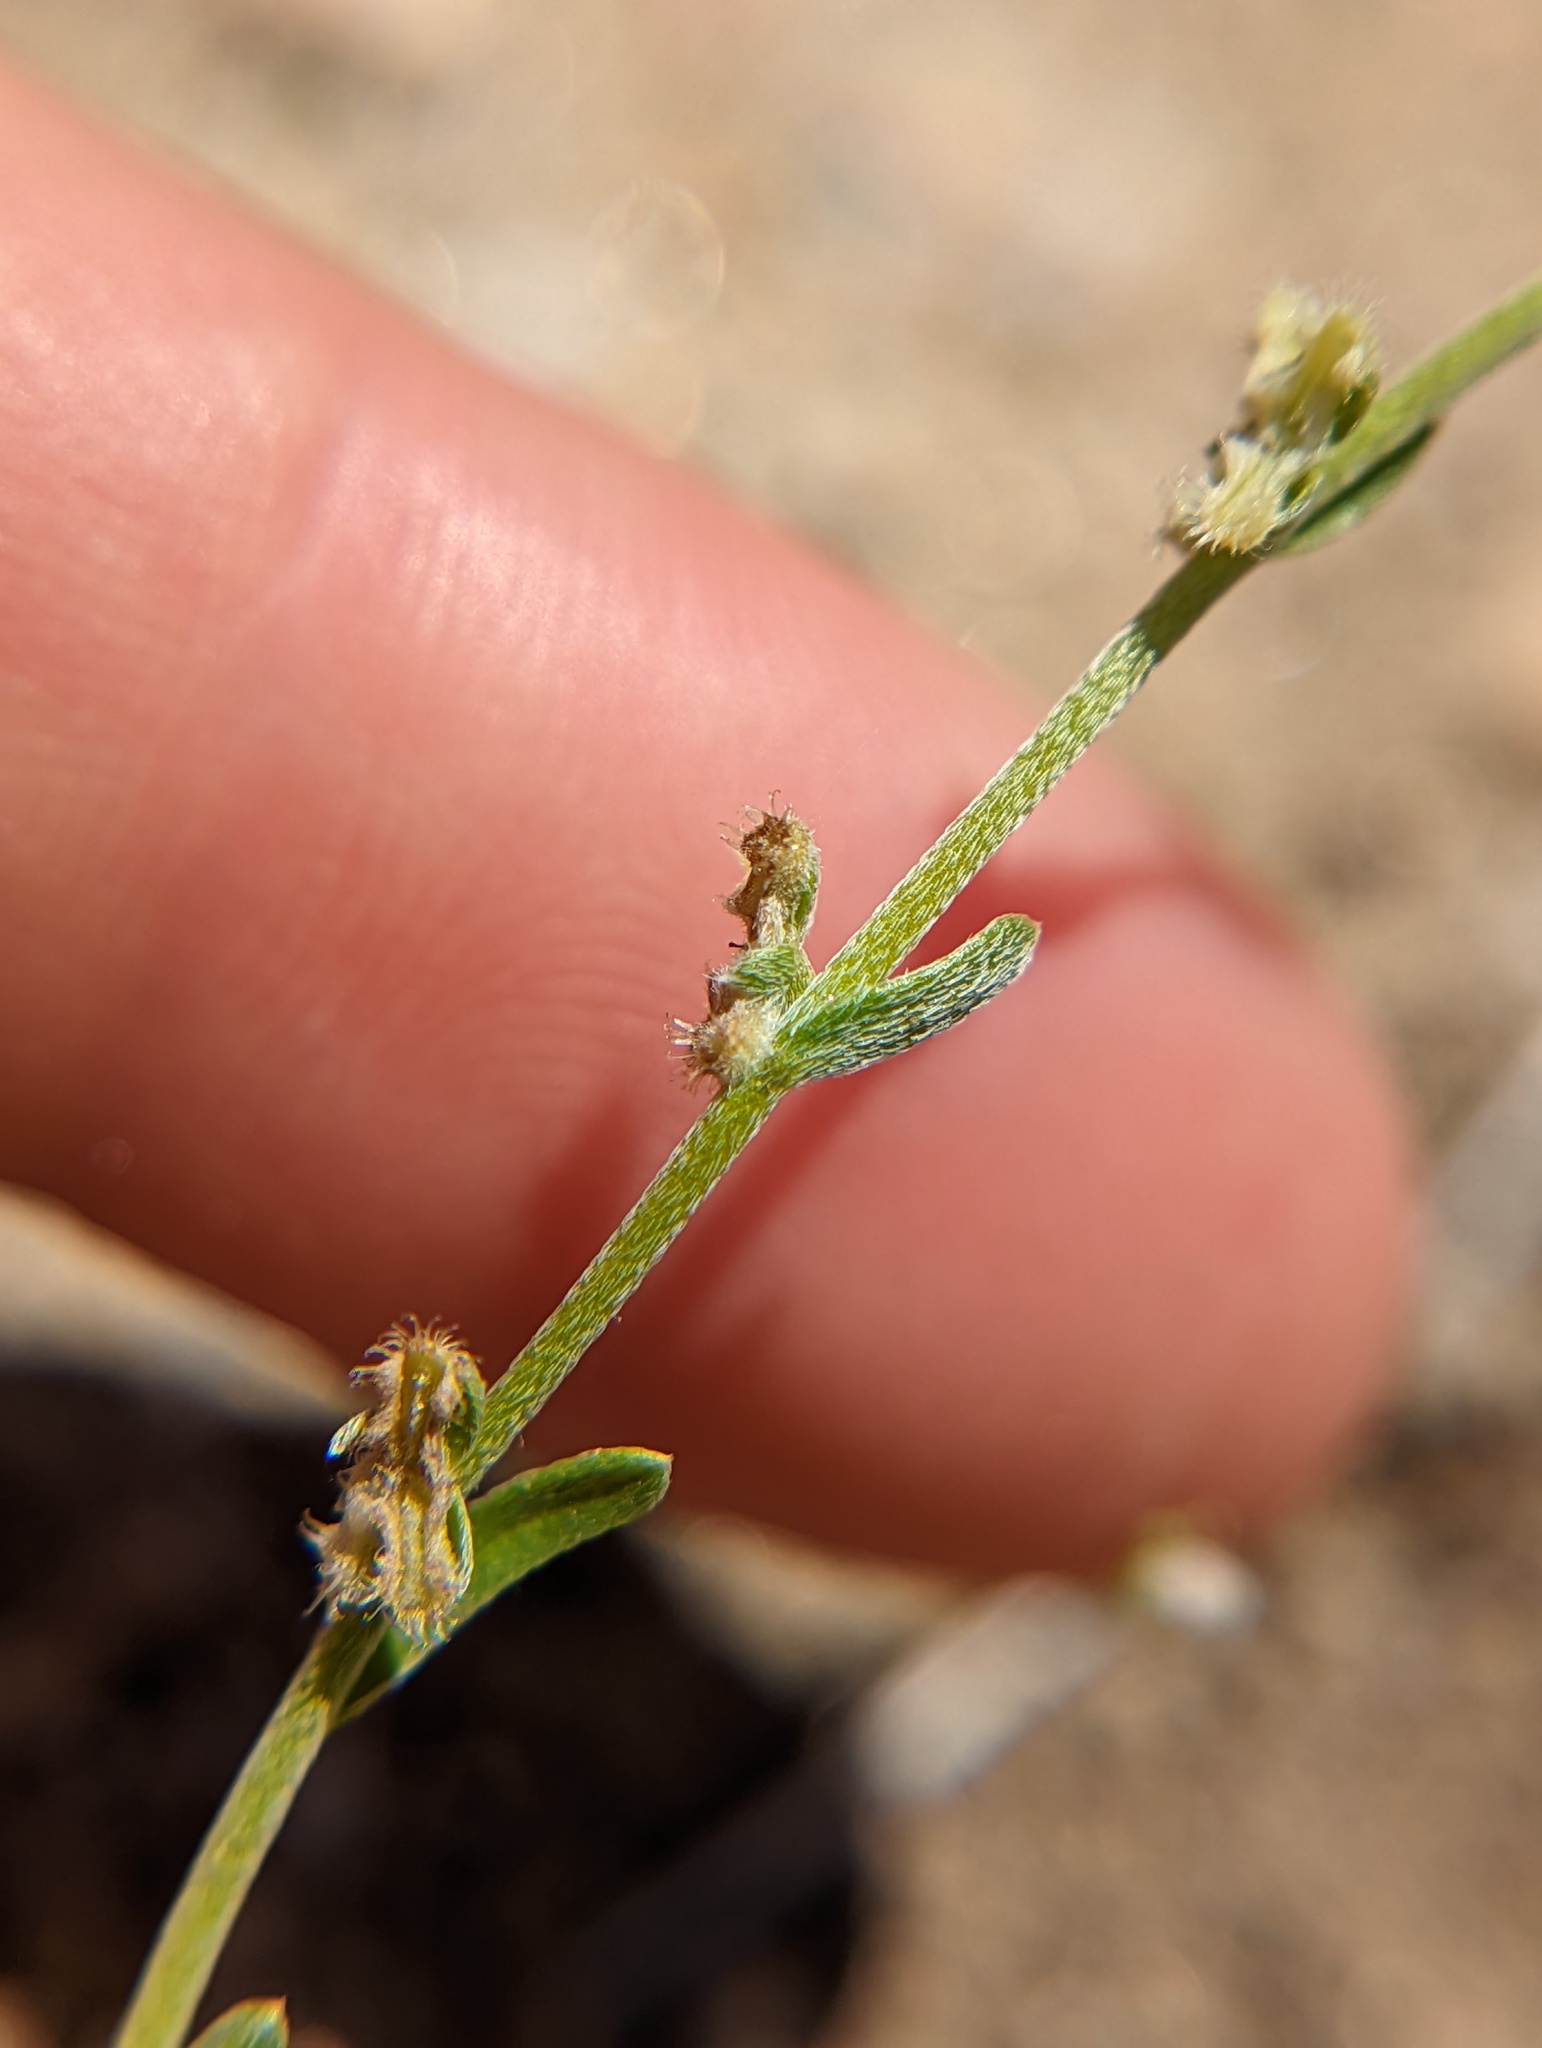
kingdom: Plantae
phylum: Tracheophyta
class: Magnoliopsida
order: Boraginales
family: Boraginaceae
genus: Pectocarya
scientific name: Pectocarya penicillata
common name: Short-leaved combseed
